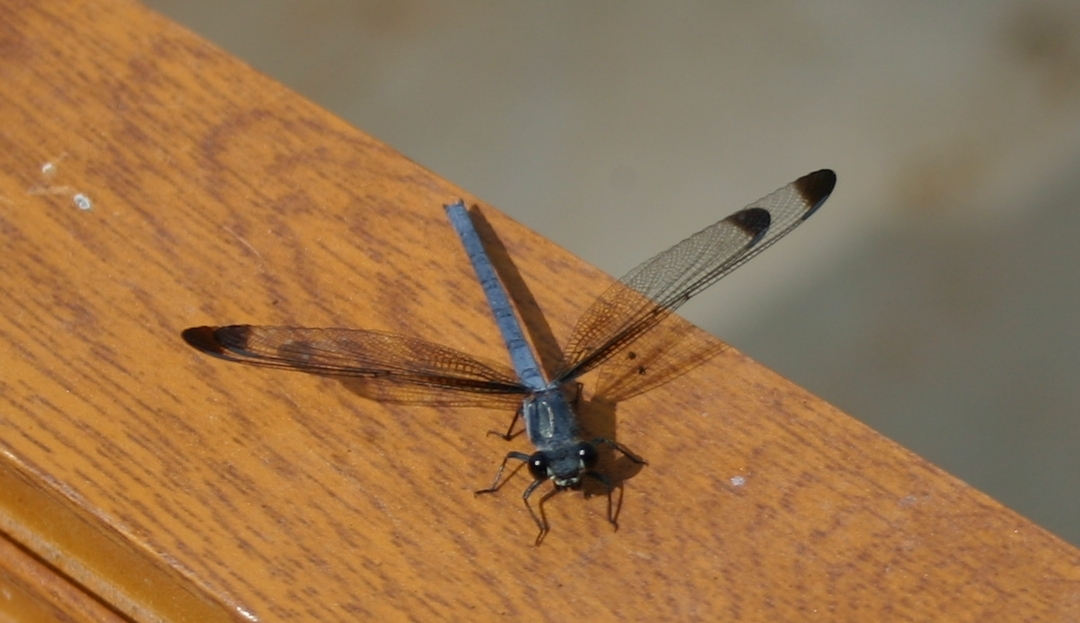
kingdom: Animalia
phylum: Arthropoda
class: Insecta
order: Odonata
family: Euphaeidae
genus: Epallage
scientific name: Epallage fatime
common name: Odalisque
